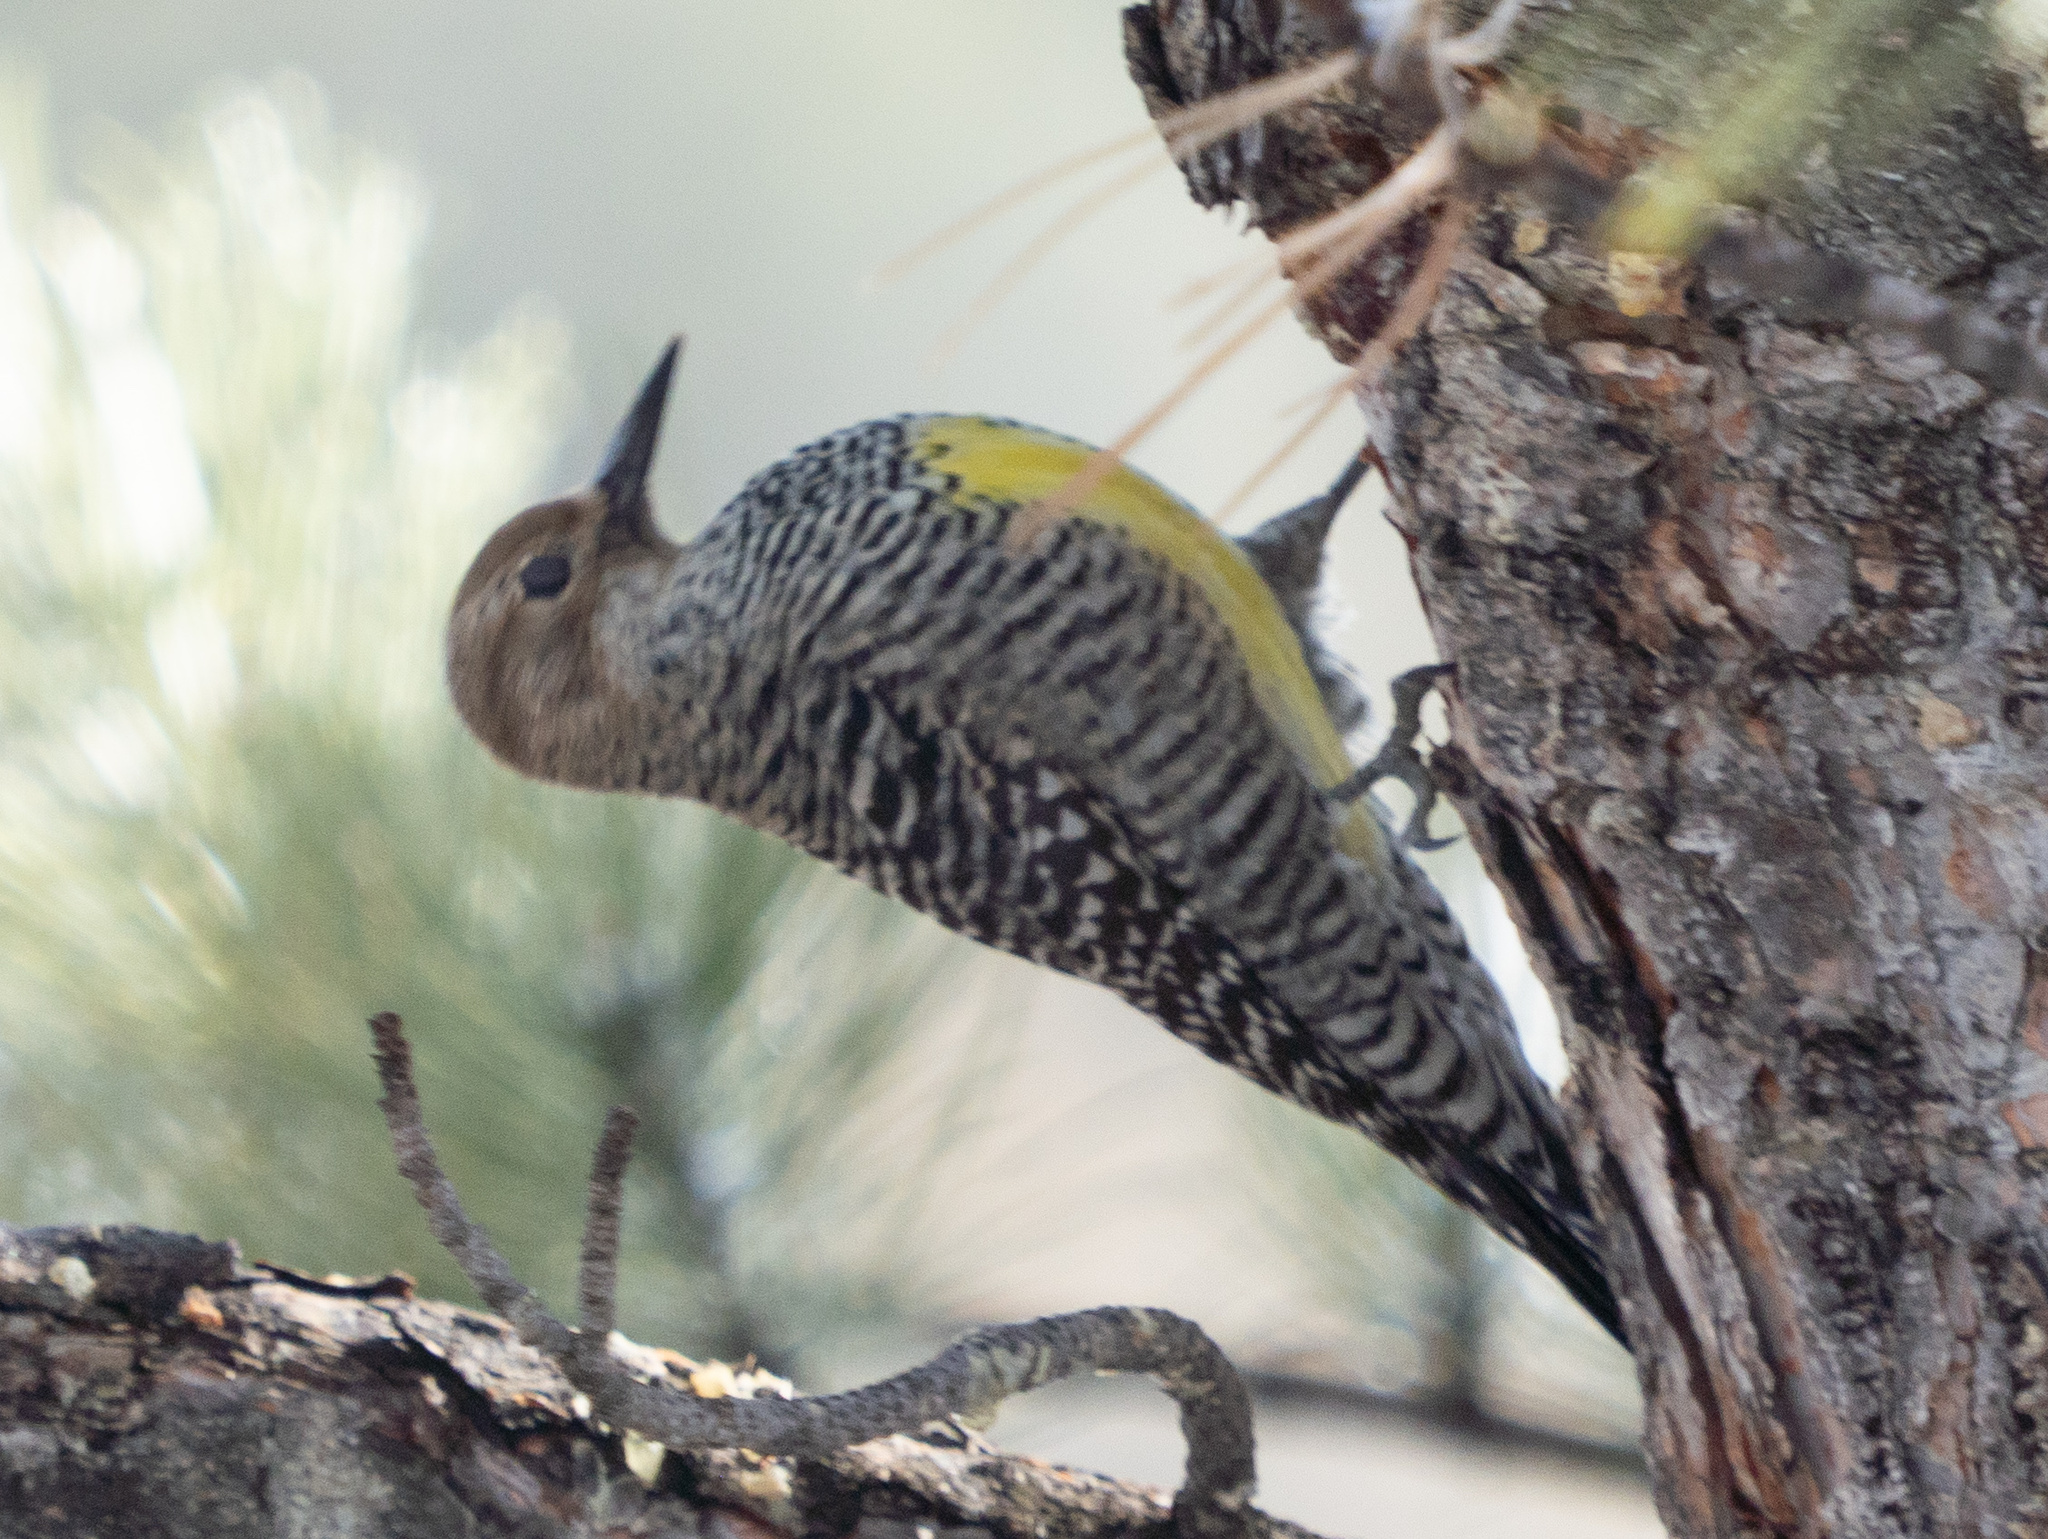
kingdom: Animalia
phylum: Chordata
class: Aves
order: Piciformes
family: Picidae
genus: Sphyrapicus
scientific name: Sphyrapicus thyroideus
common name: Williamson's sapsucker
